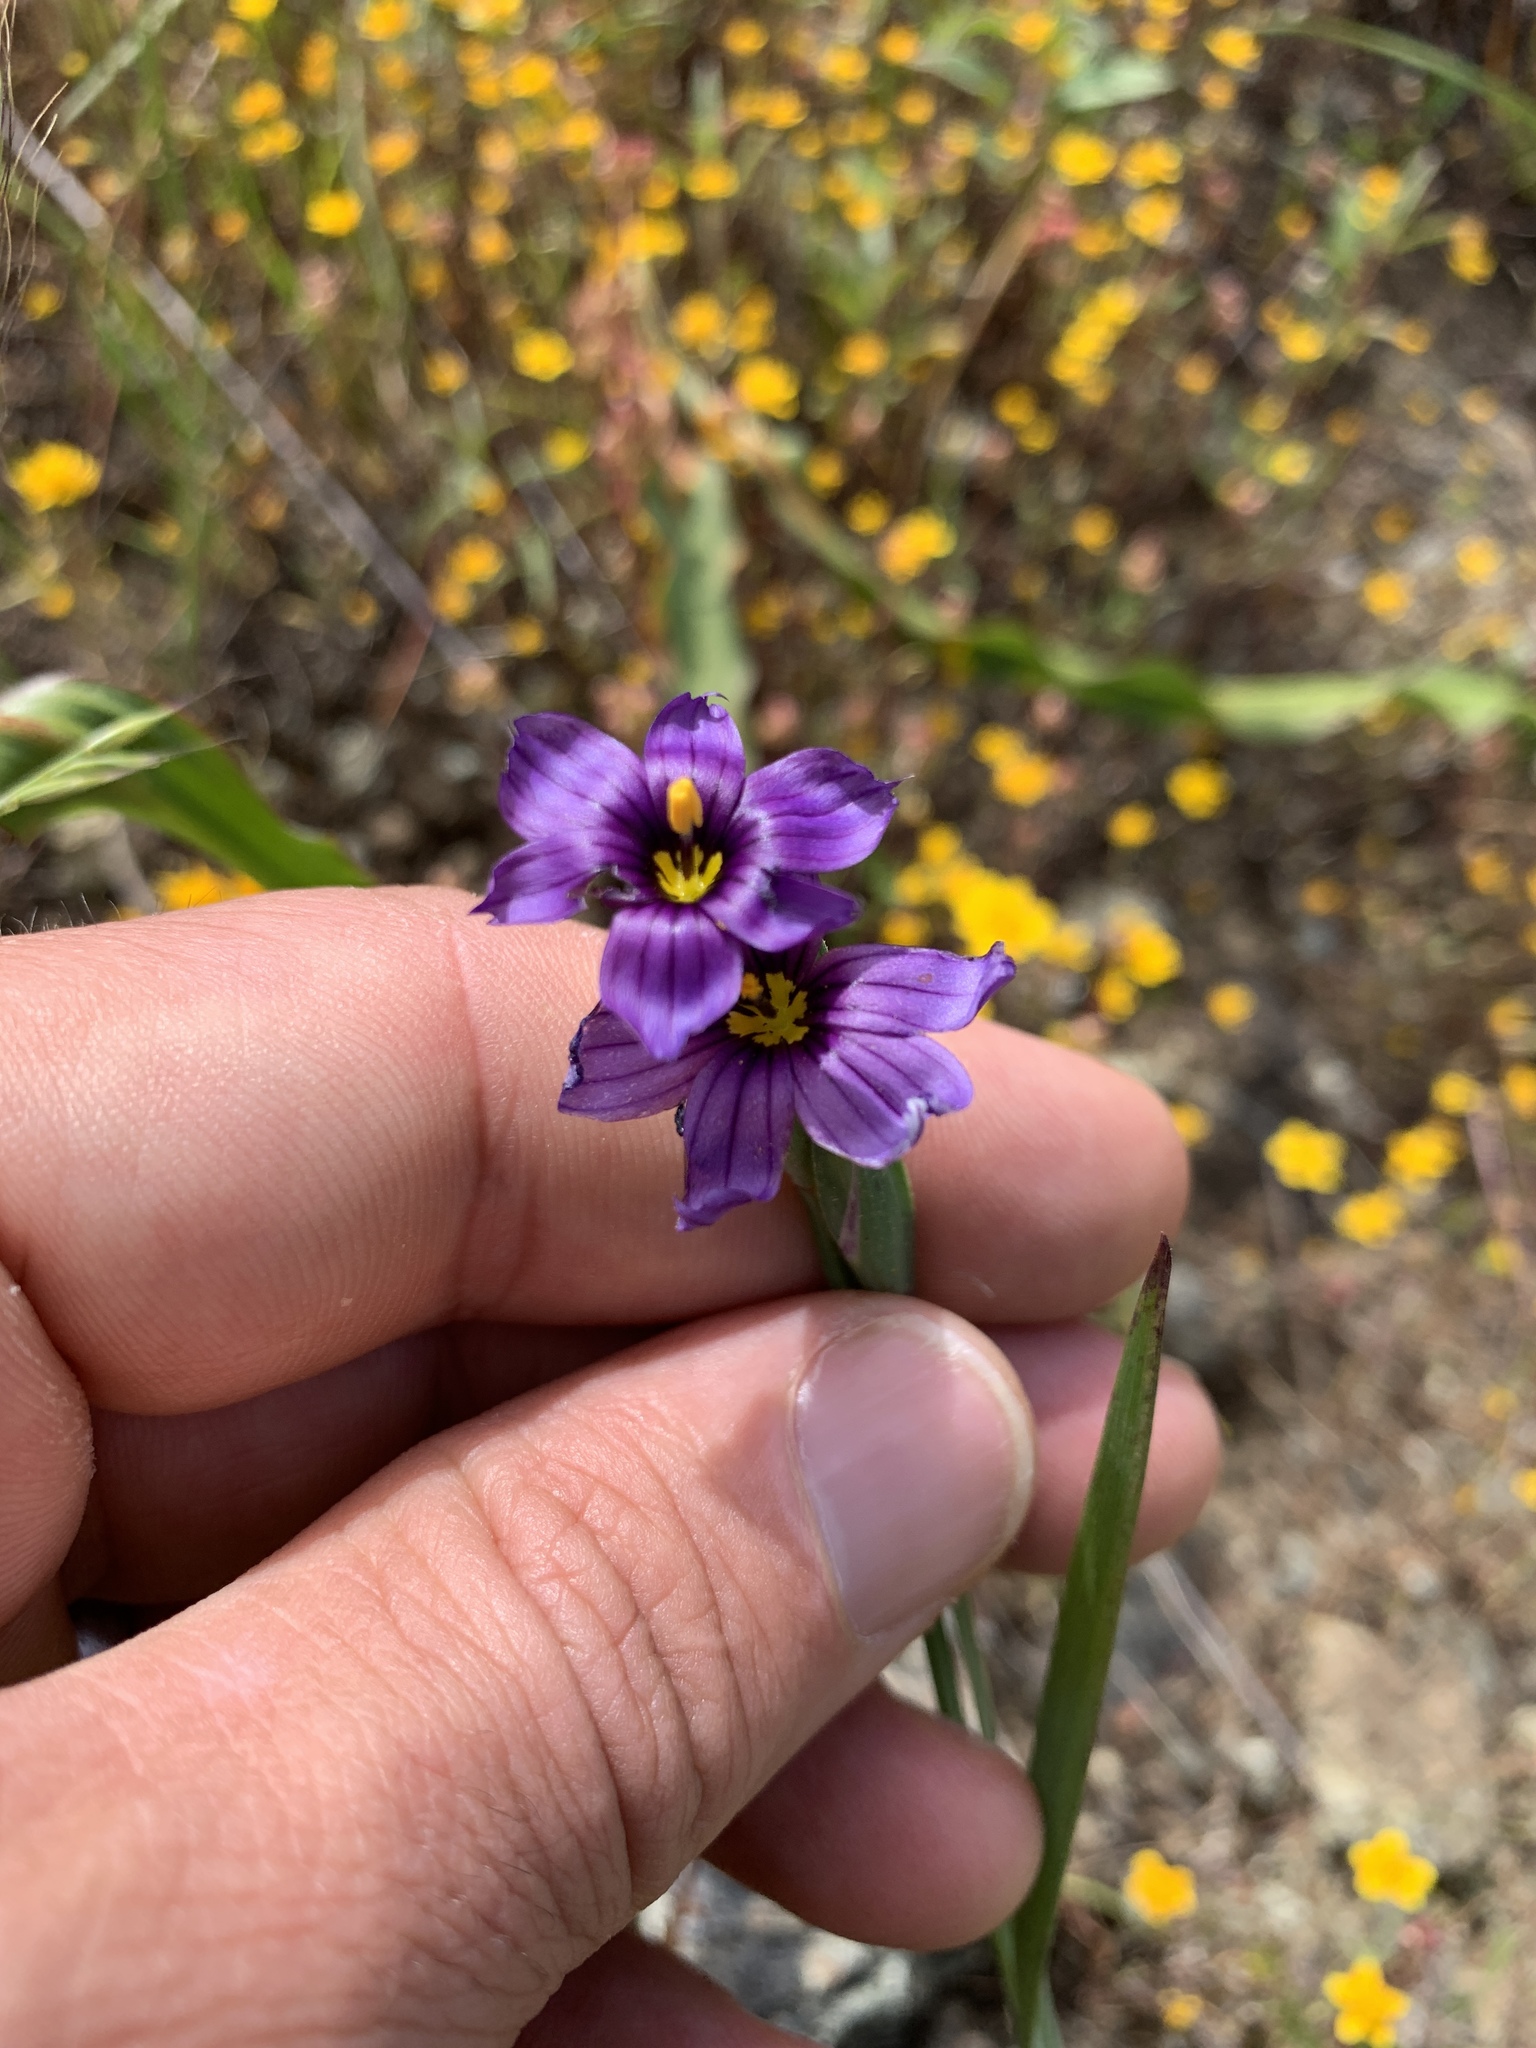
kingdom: Plantae
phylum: Tracheophyta
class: Liliopsida
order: Asparagales
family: Iridaceae
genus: Sisyrinchium
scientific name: Sisyrinchium bellum
